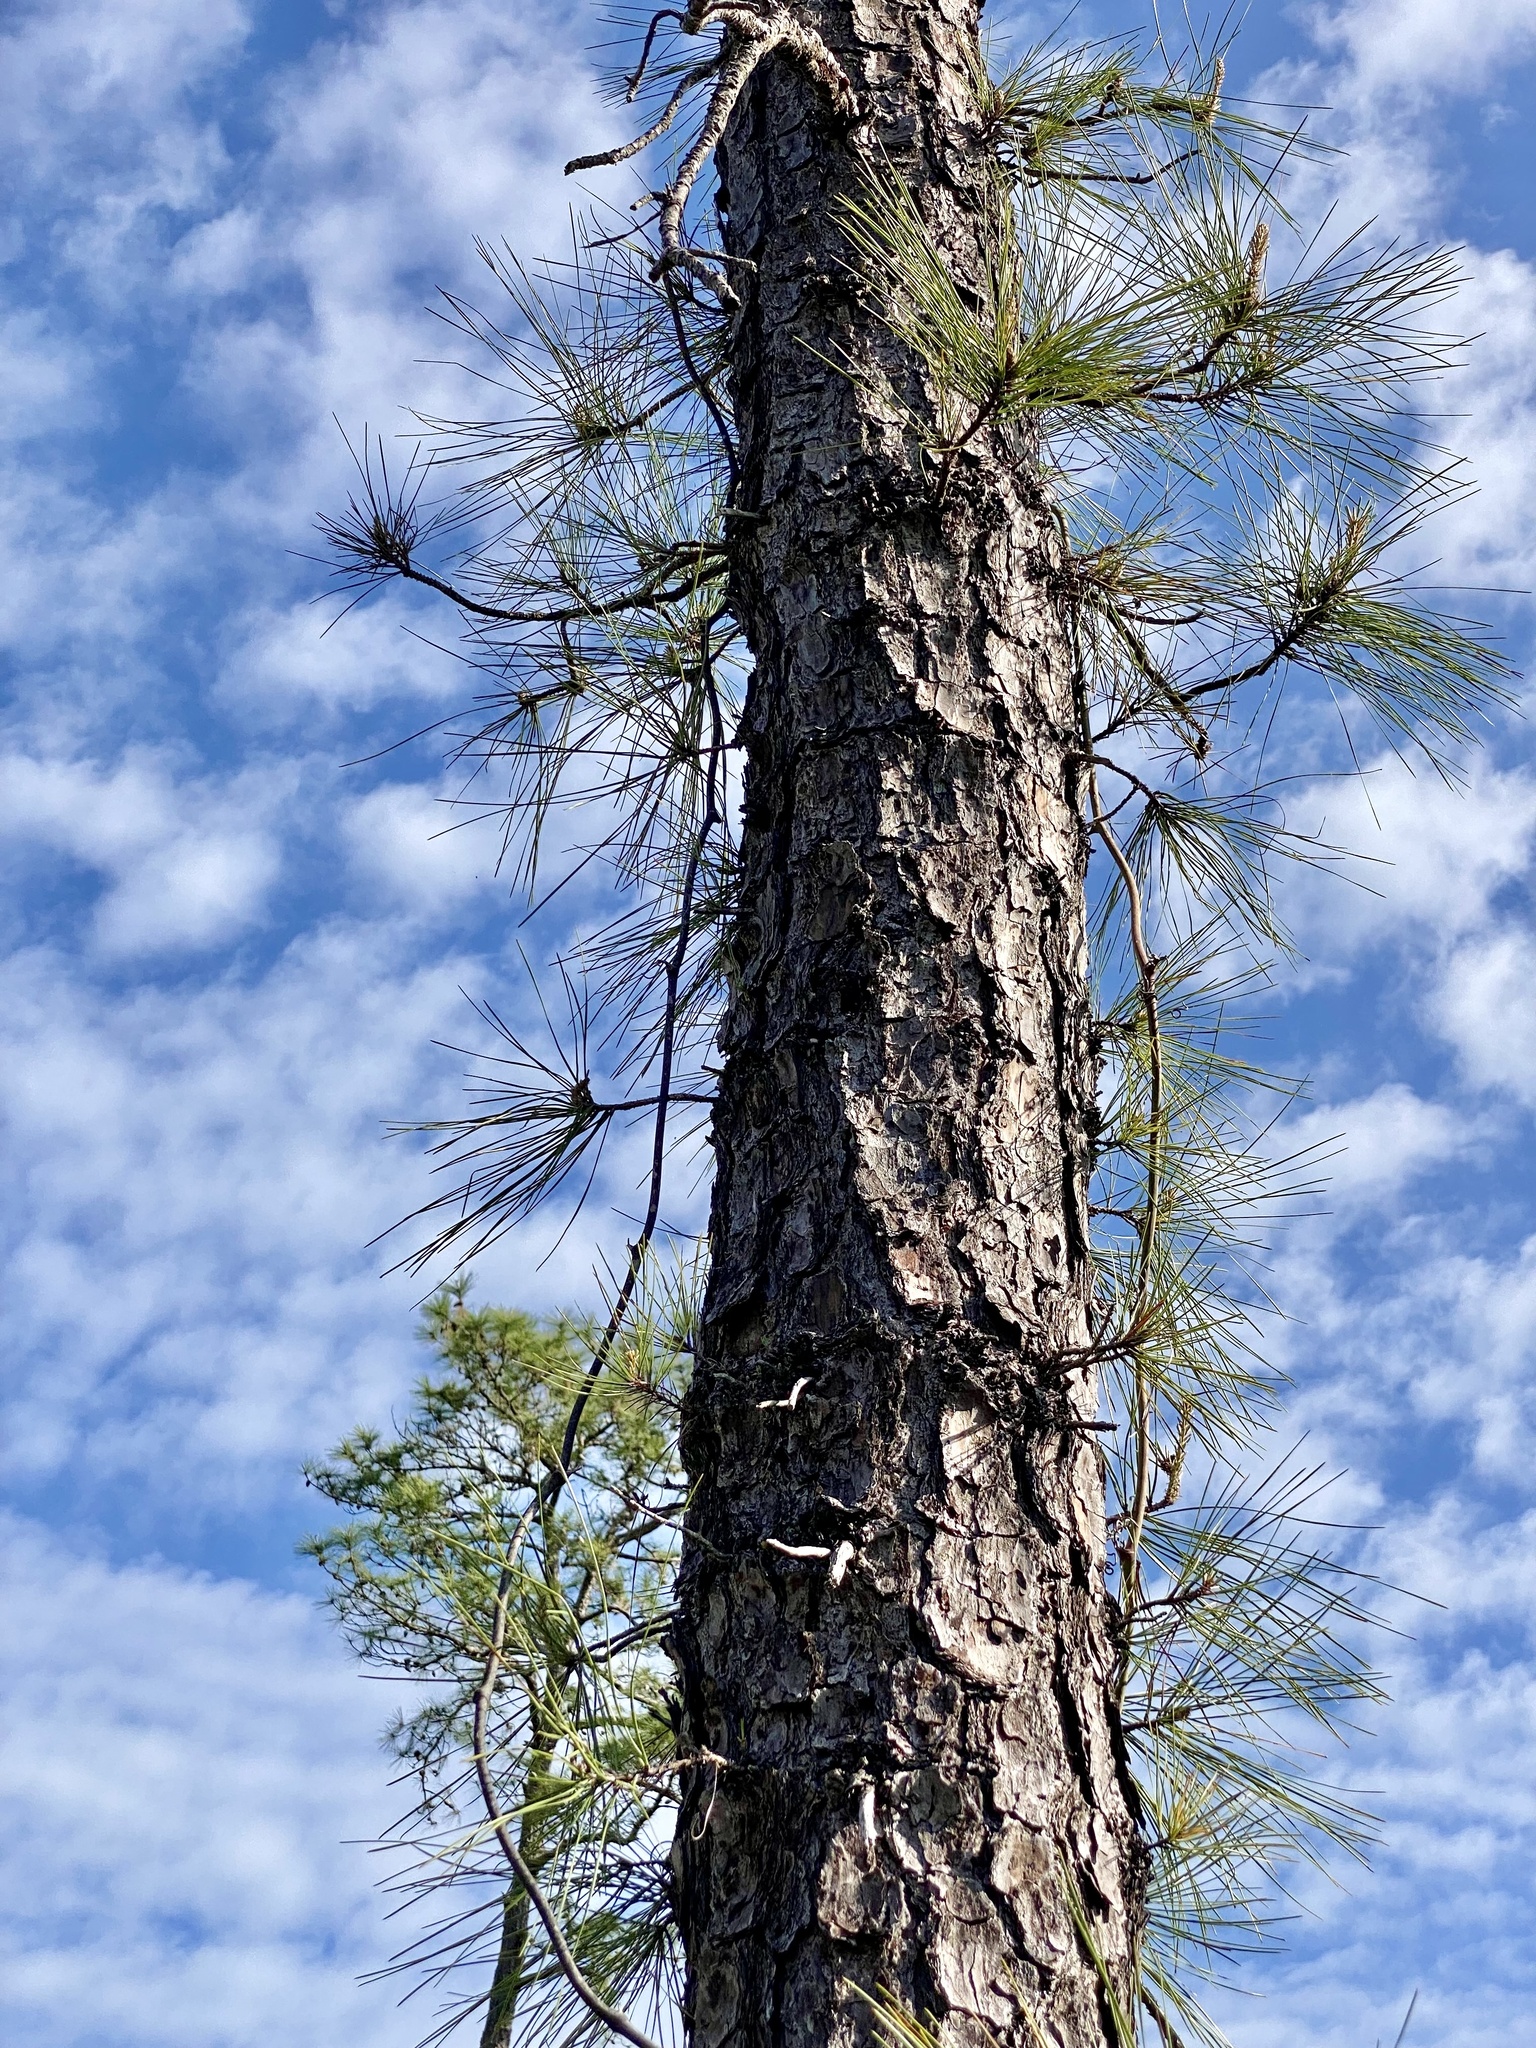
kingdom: Plantae
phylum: Tracheophyta
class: Pinopsida
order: Pinales
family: Pinaceae
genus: Pinus
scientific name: Pinus serotina
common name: Marsh pine
